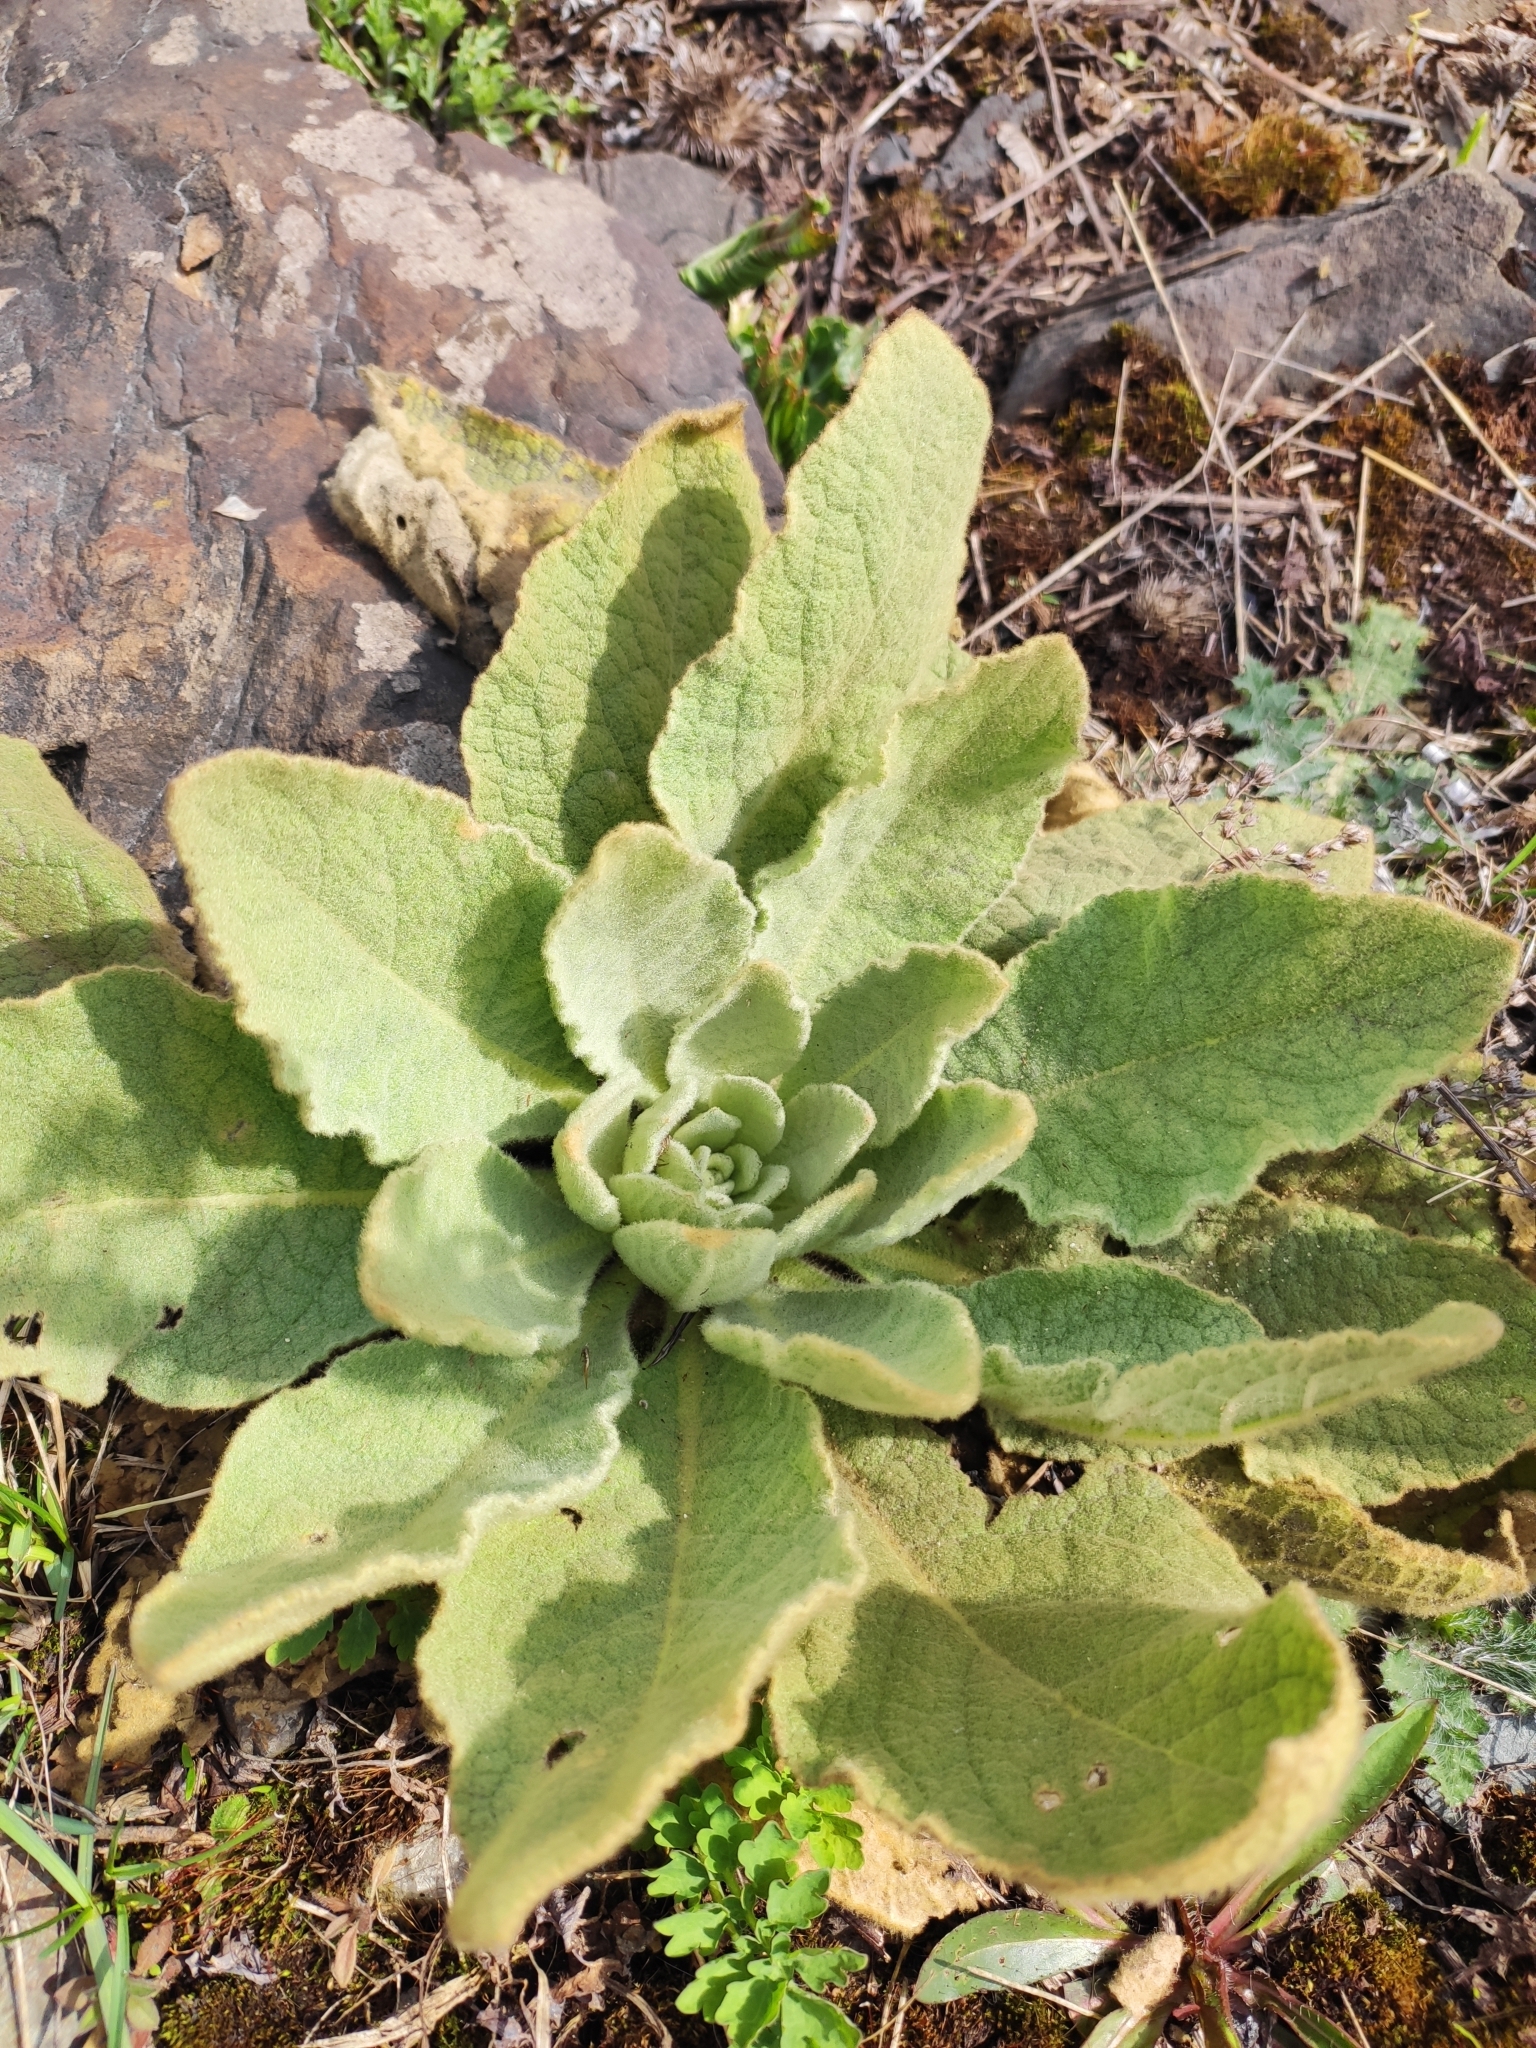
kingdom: Plantae
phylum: Tracheophyta
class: Magnoliopsida
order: Lamiales
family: Scrophulariaceae
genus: Verbascum
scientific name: Verbascum thapsus
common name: Common mullein
